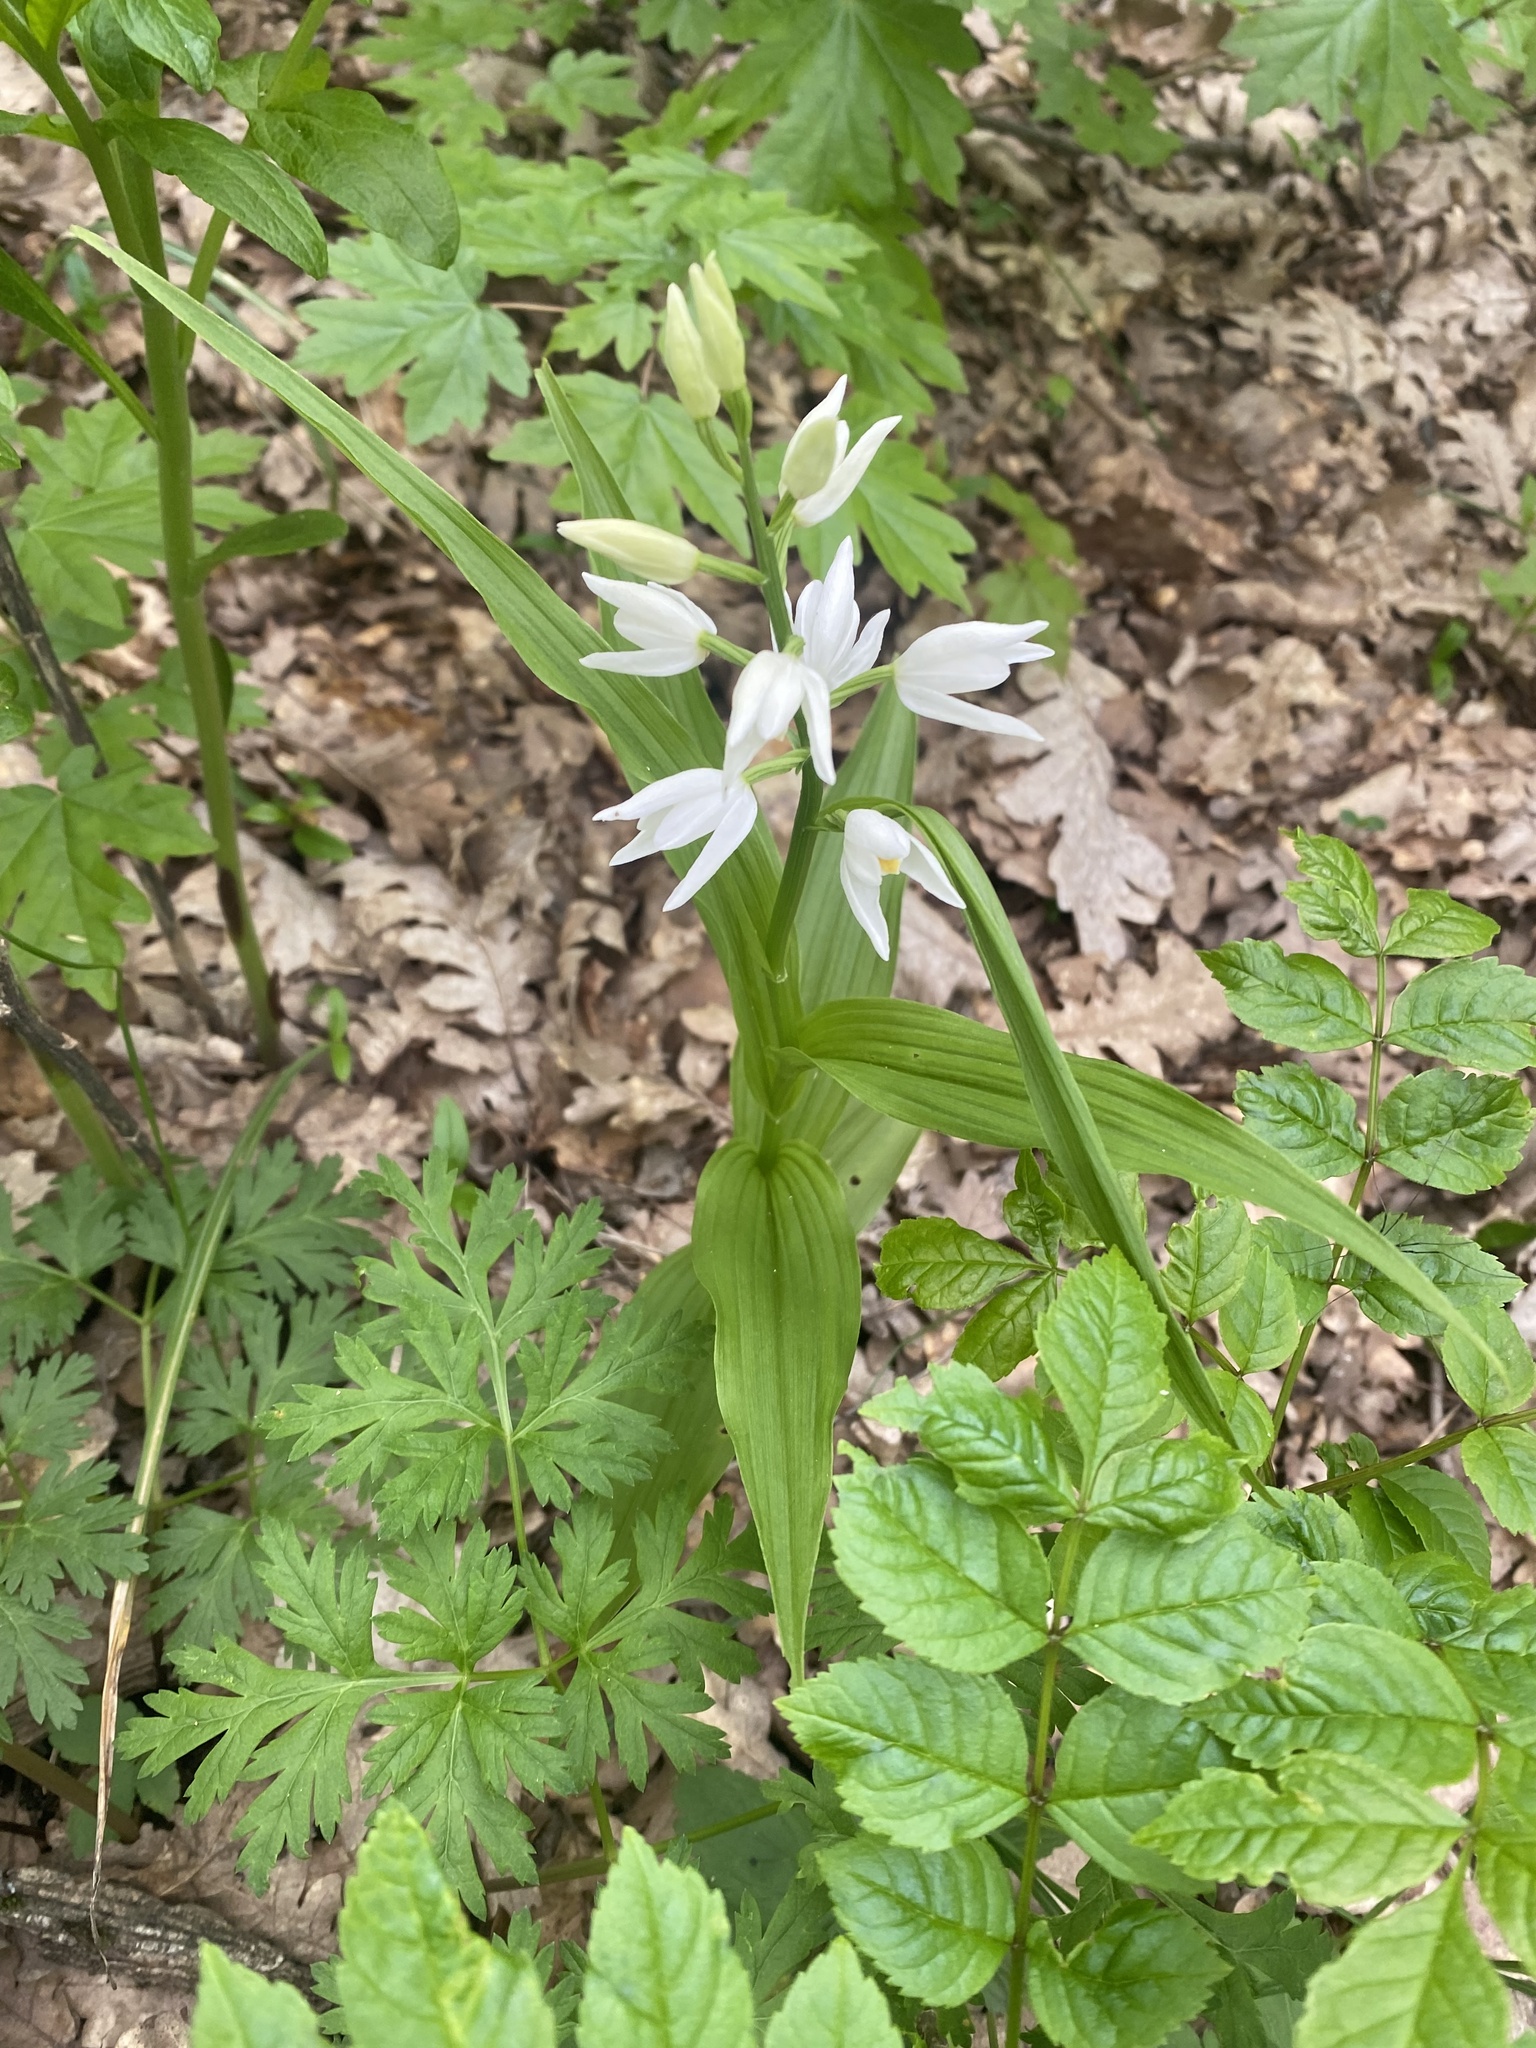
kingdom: Plantae
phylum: Tracheophyta
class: Liliopsida
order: Asparagales
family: Orchidaceae
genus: Cephalanthera
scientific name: Cephalanthera longifolia
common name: Narrow-leaved helleborine
